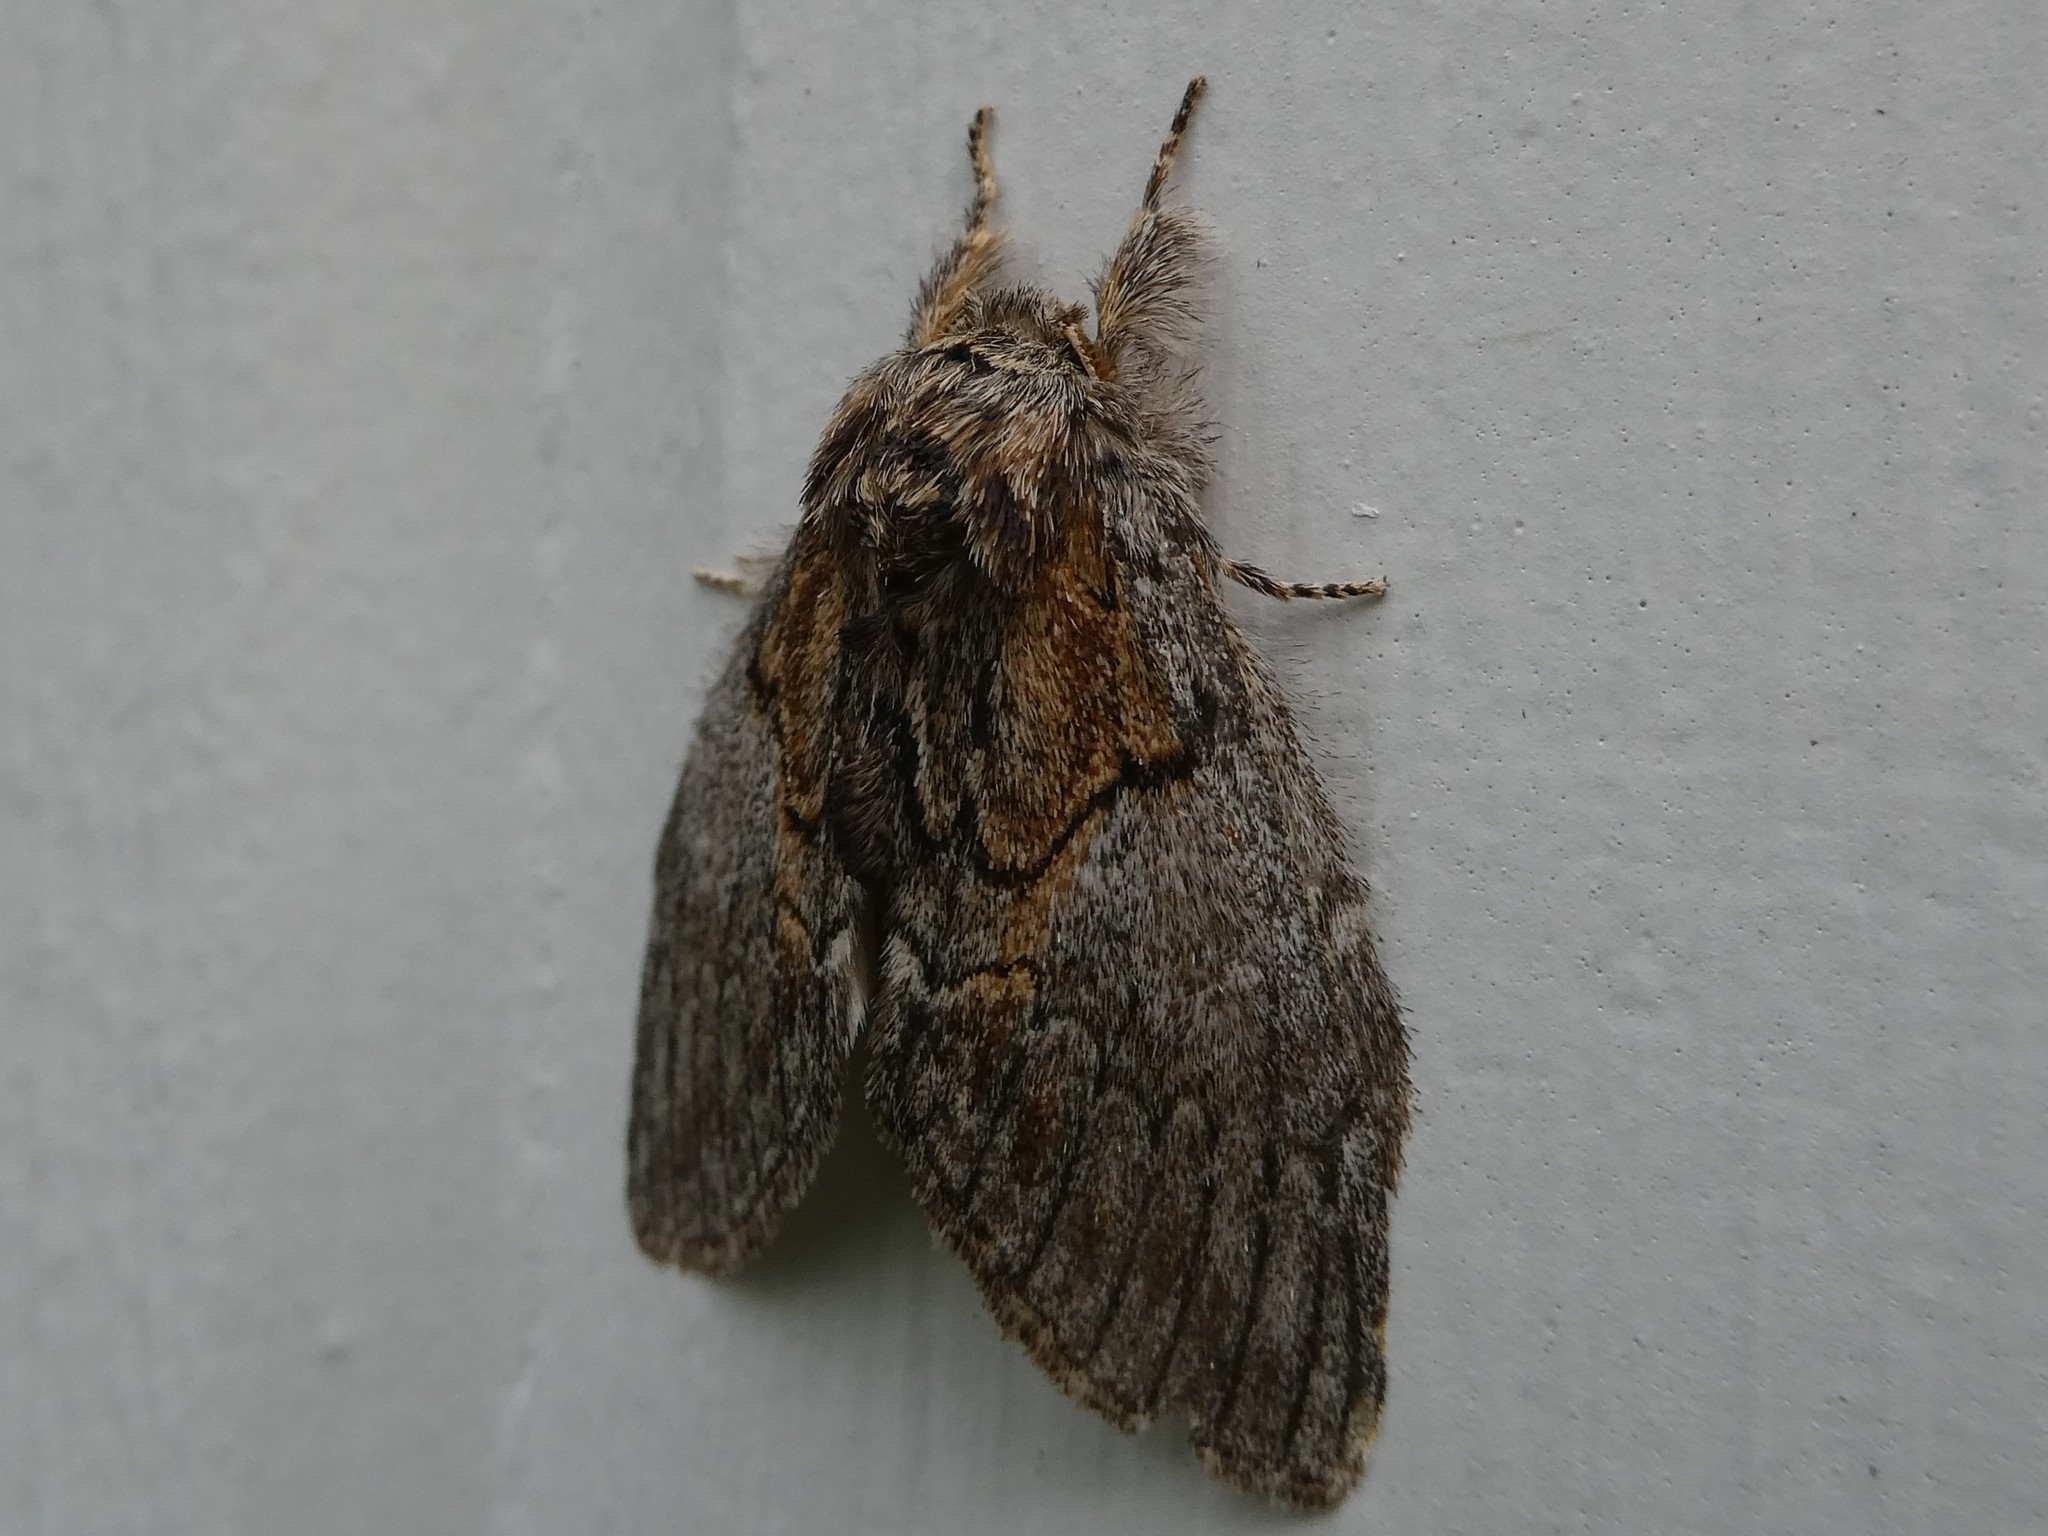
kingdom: Animalia
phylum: Arthropoda
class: Insecta
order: Lepidoptera
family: Notodontidae
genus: Peridea
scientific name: Peridea basitriens
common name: Oval-based prominent
